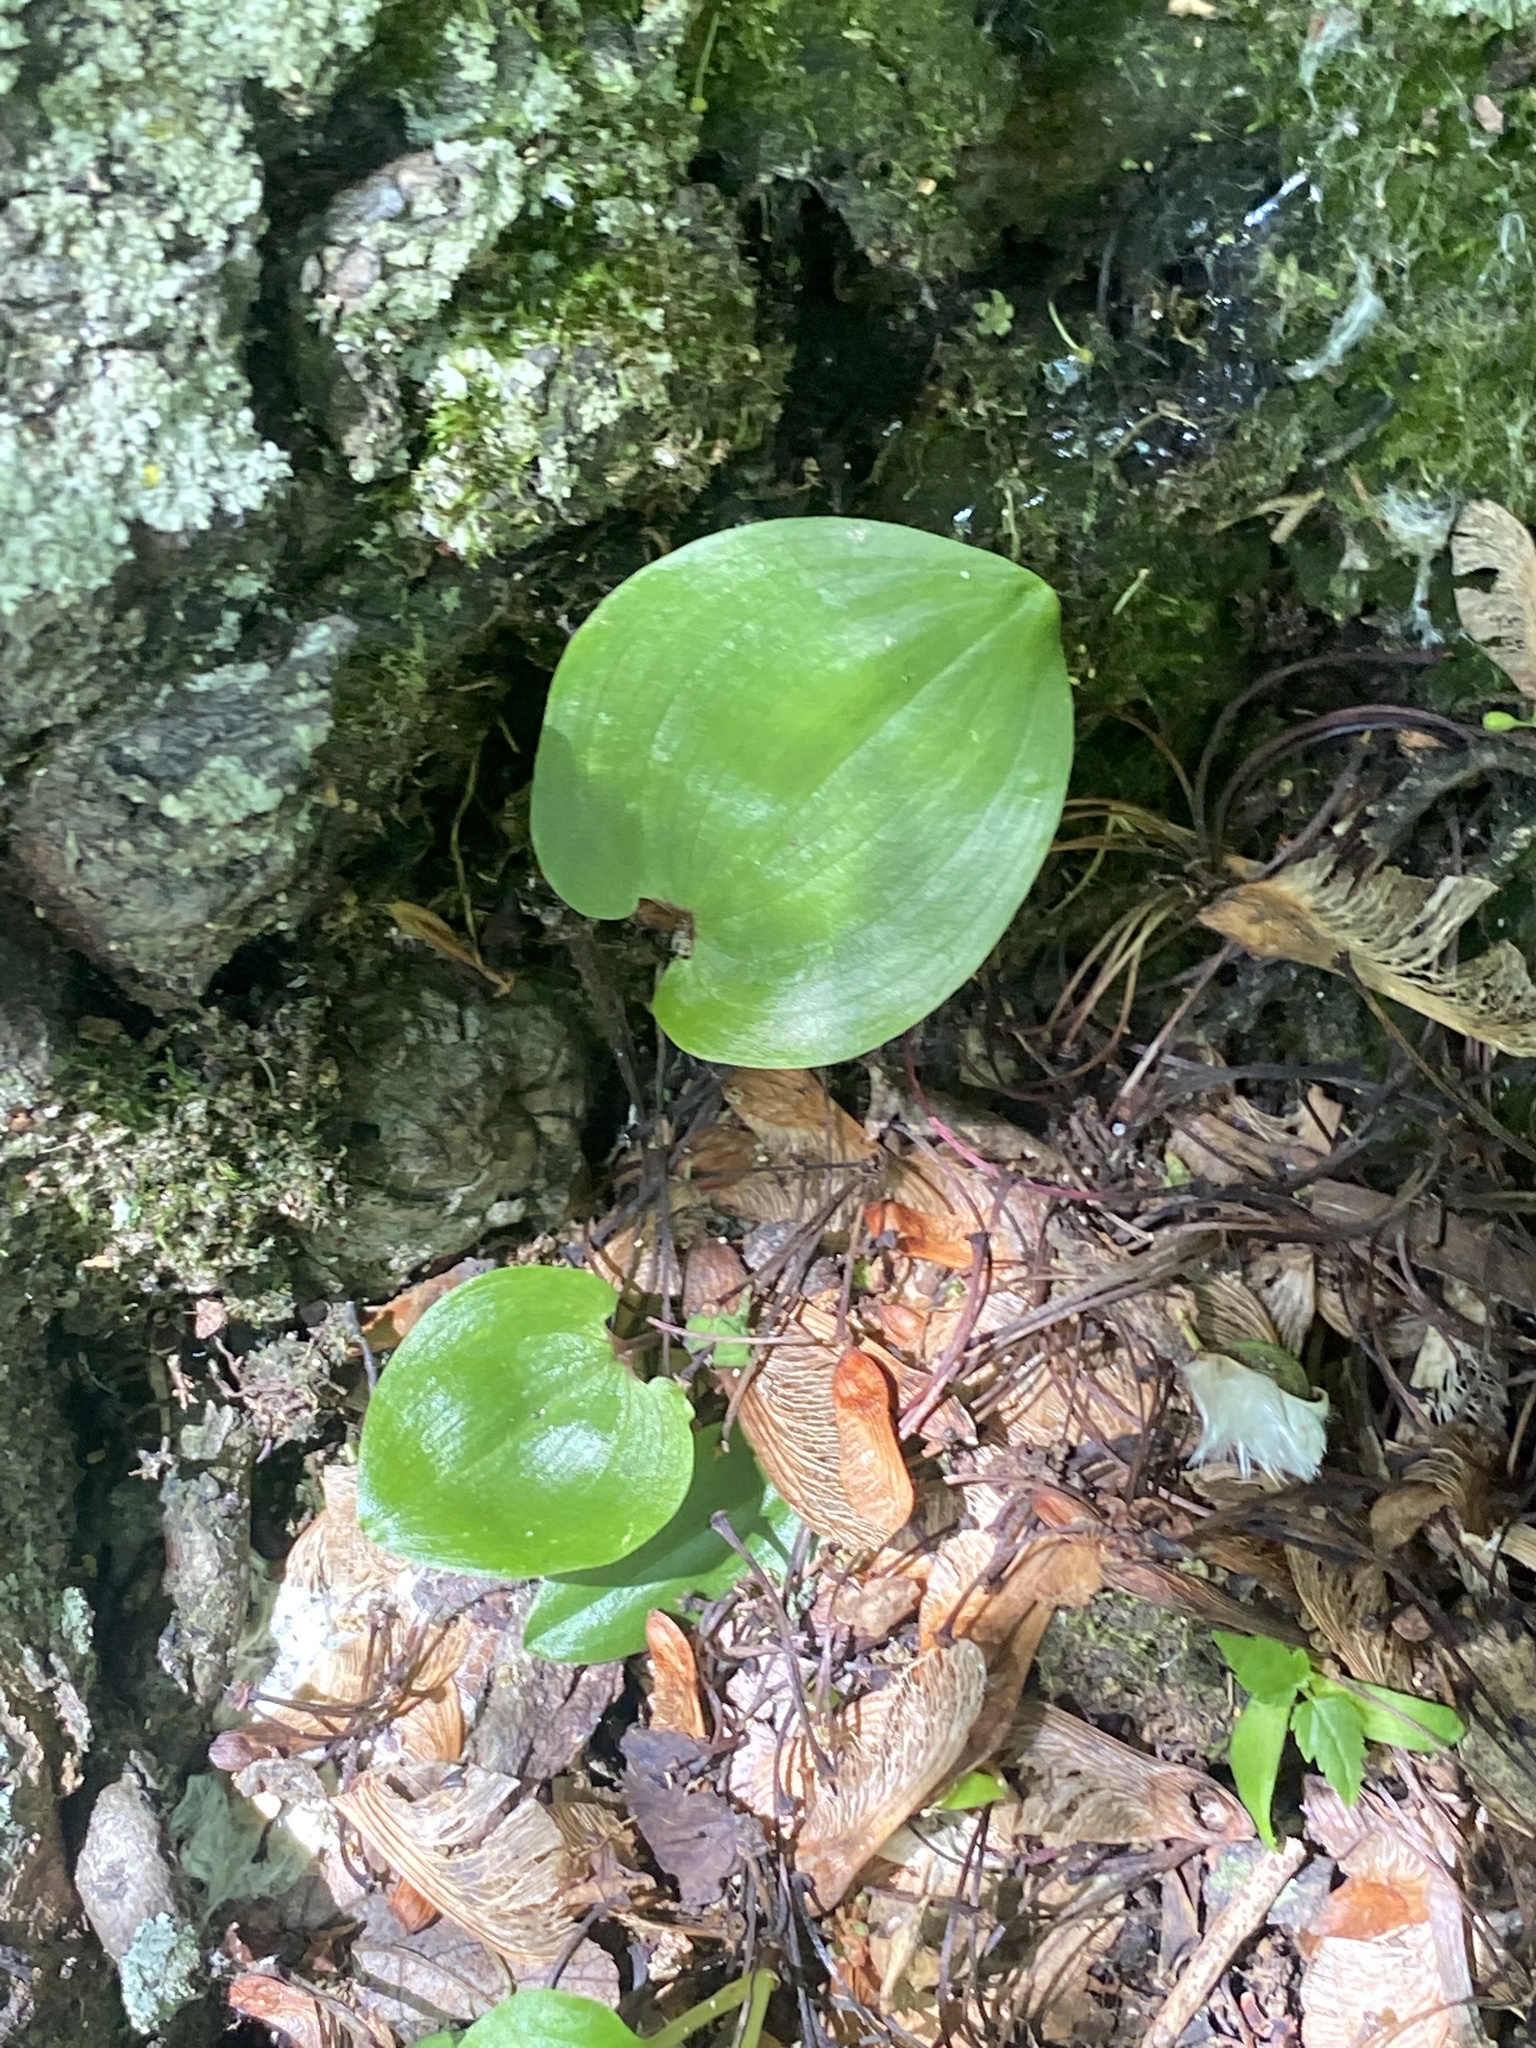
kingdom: Plantae
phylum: Tracheophyta
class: Liliopsida
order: Asparagales
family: Asparagaceae
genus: Maianthemum
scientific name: Maianthemum canadense
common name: False lily-of-the-valley
